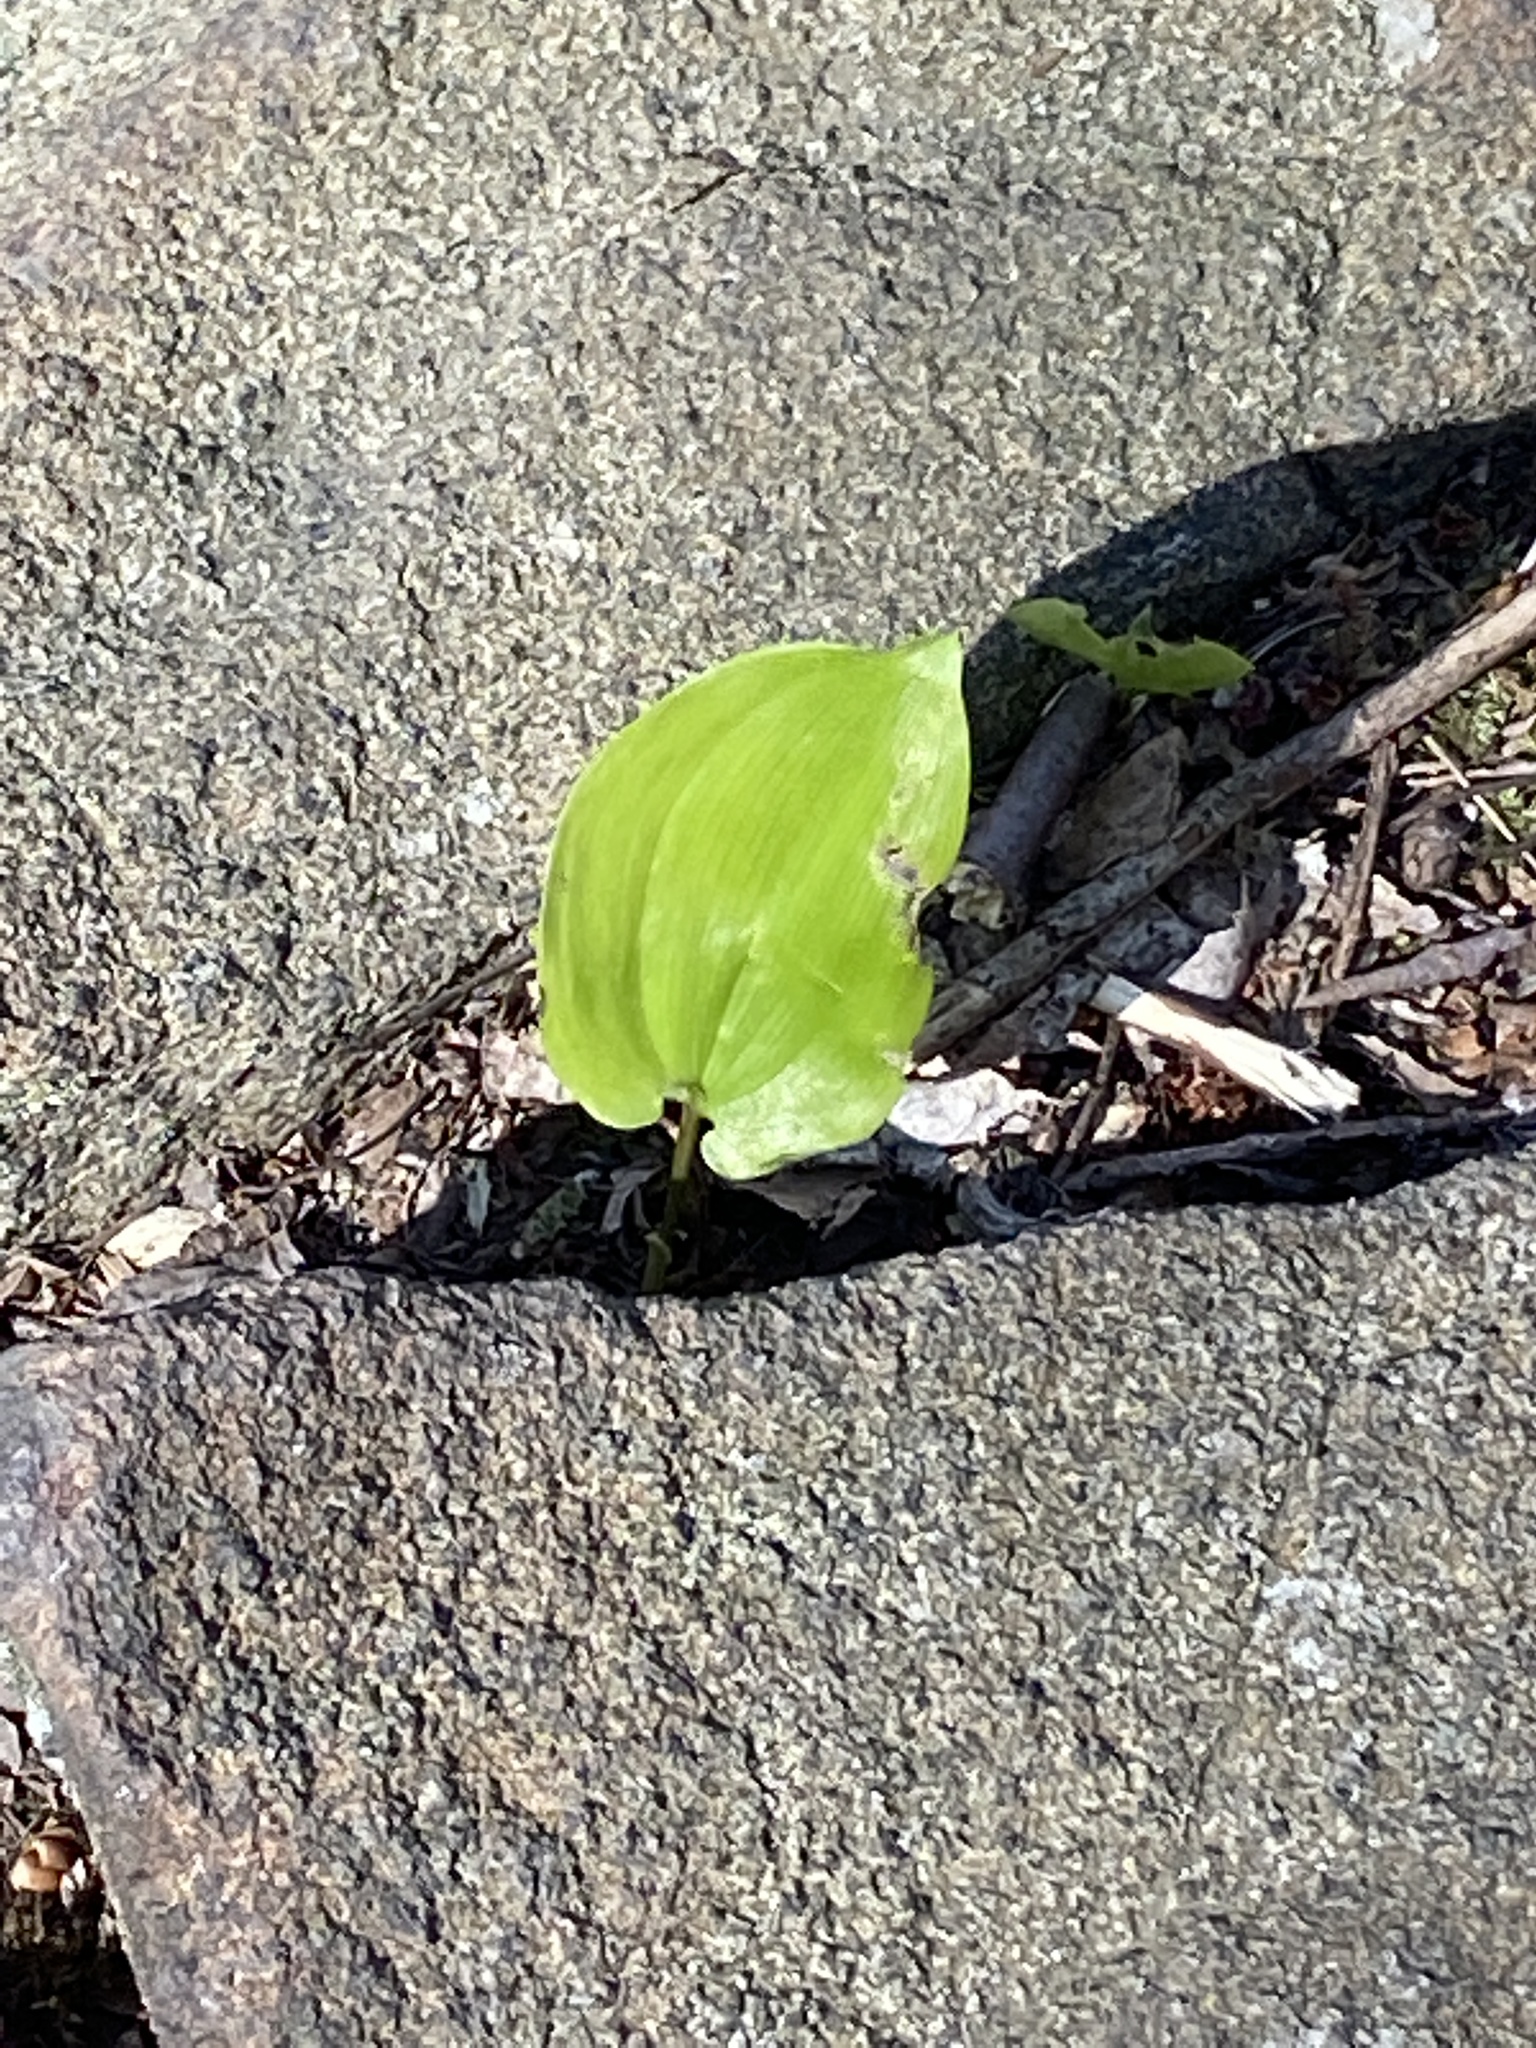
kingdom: Plantae
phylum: Tracheophyta
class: Liliopsida
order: Asparagales
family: Asparagaceae
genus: Maianthemum
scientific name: Maianthemum canadense
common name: False lily-of-the-valley
